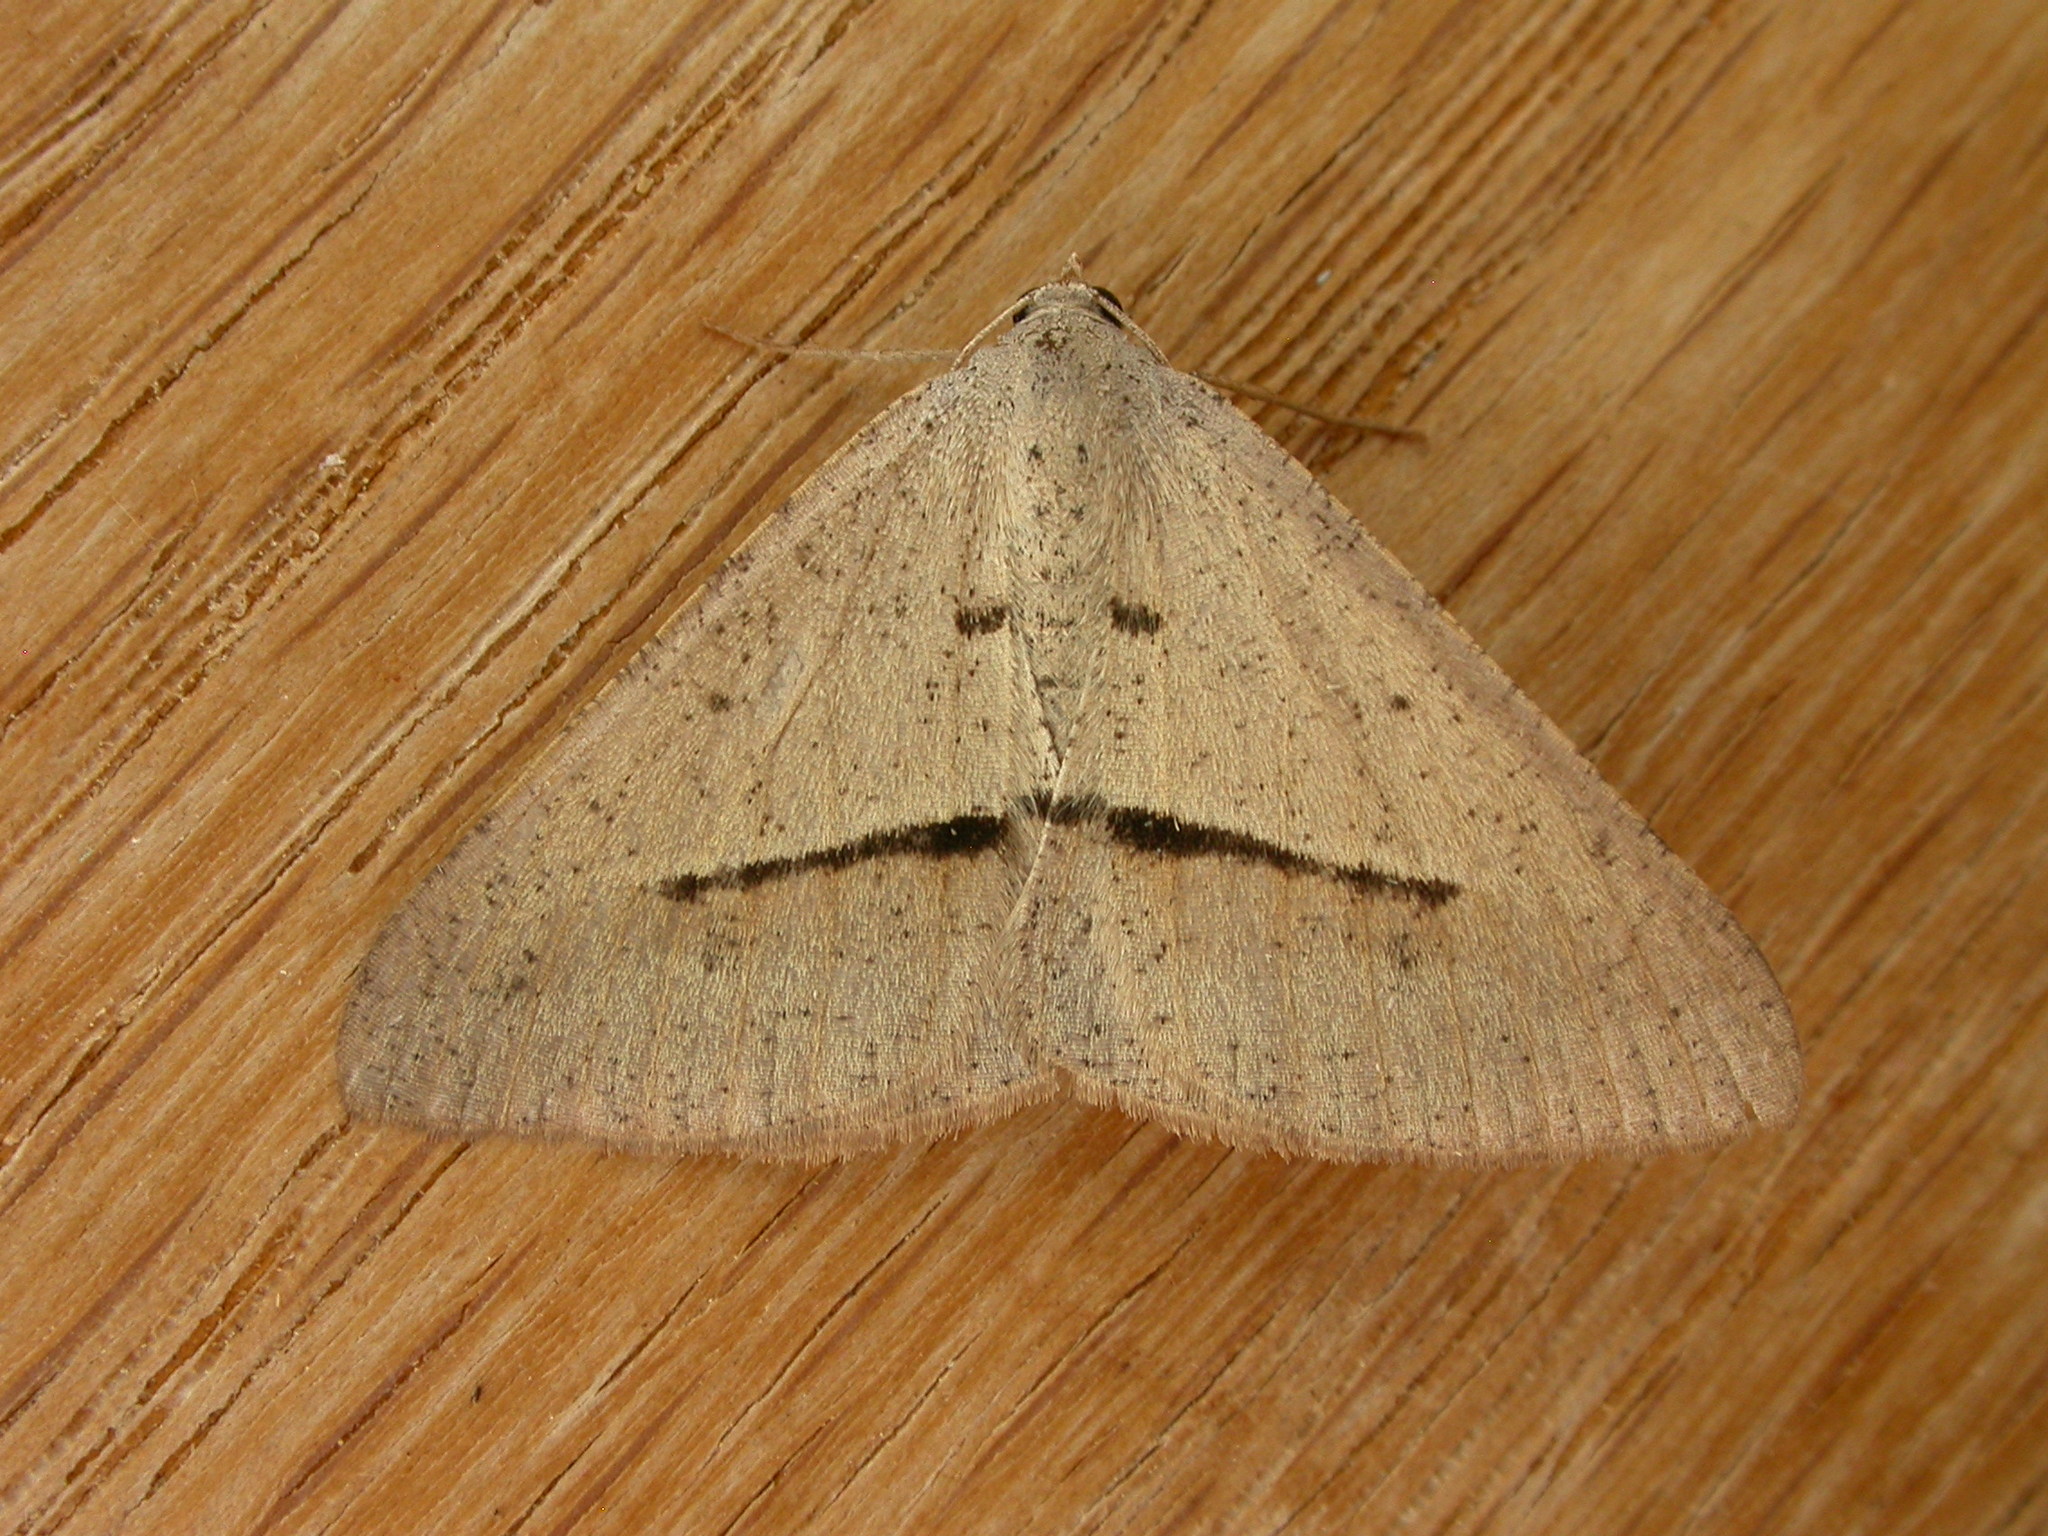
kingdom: Animalia
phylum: Arthropoda
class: Insecta
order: Lepidoptera
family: Geometridae
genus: Isturgia
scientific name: Isturgia
